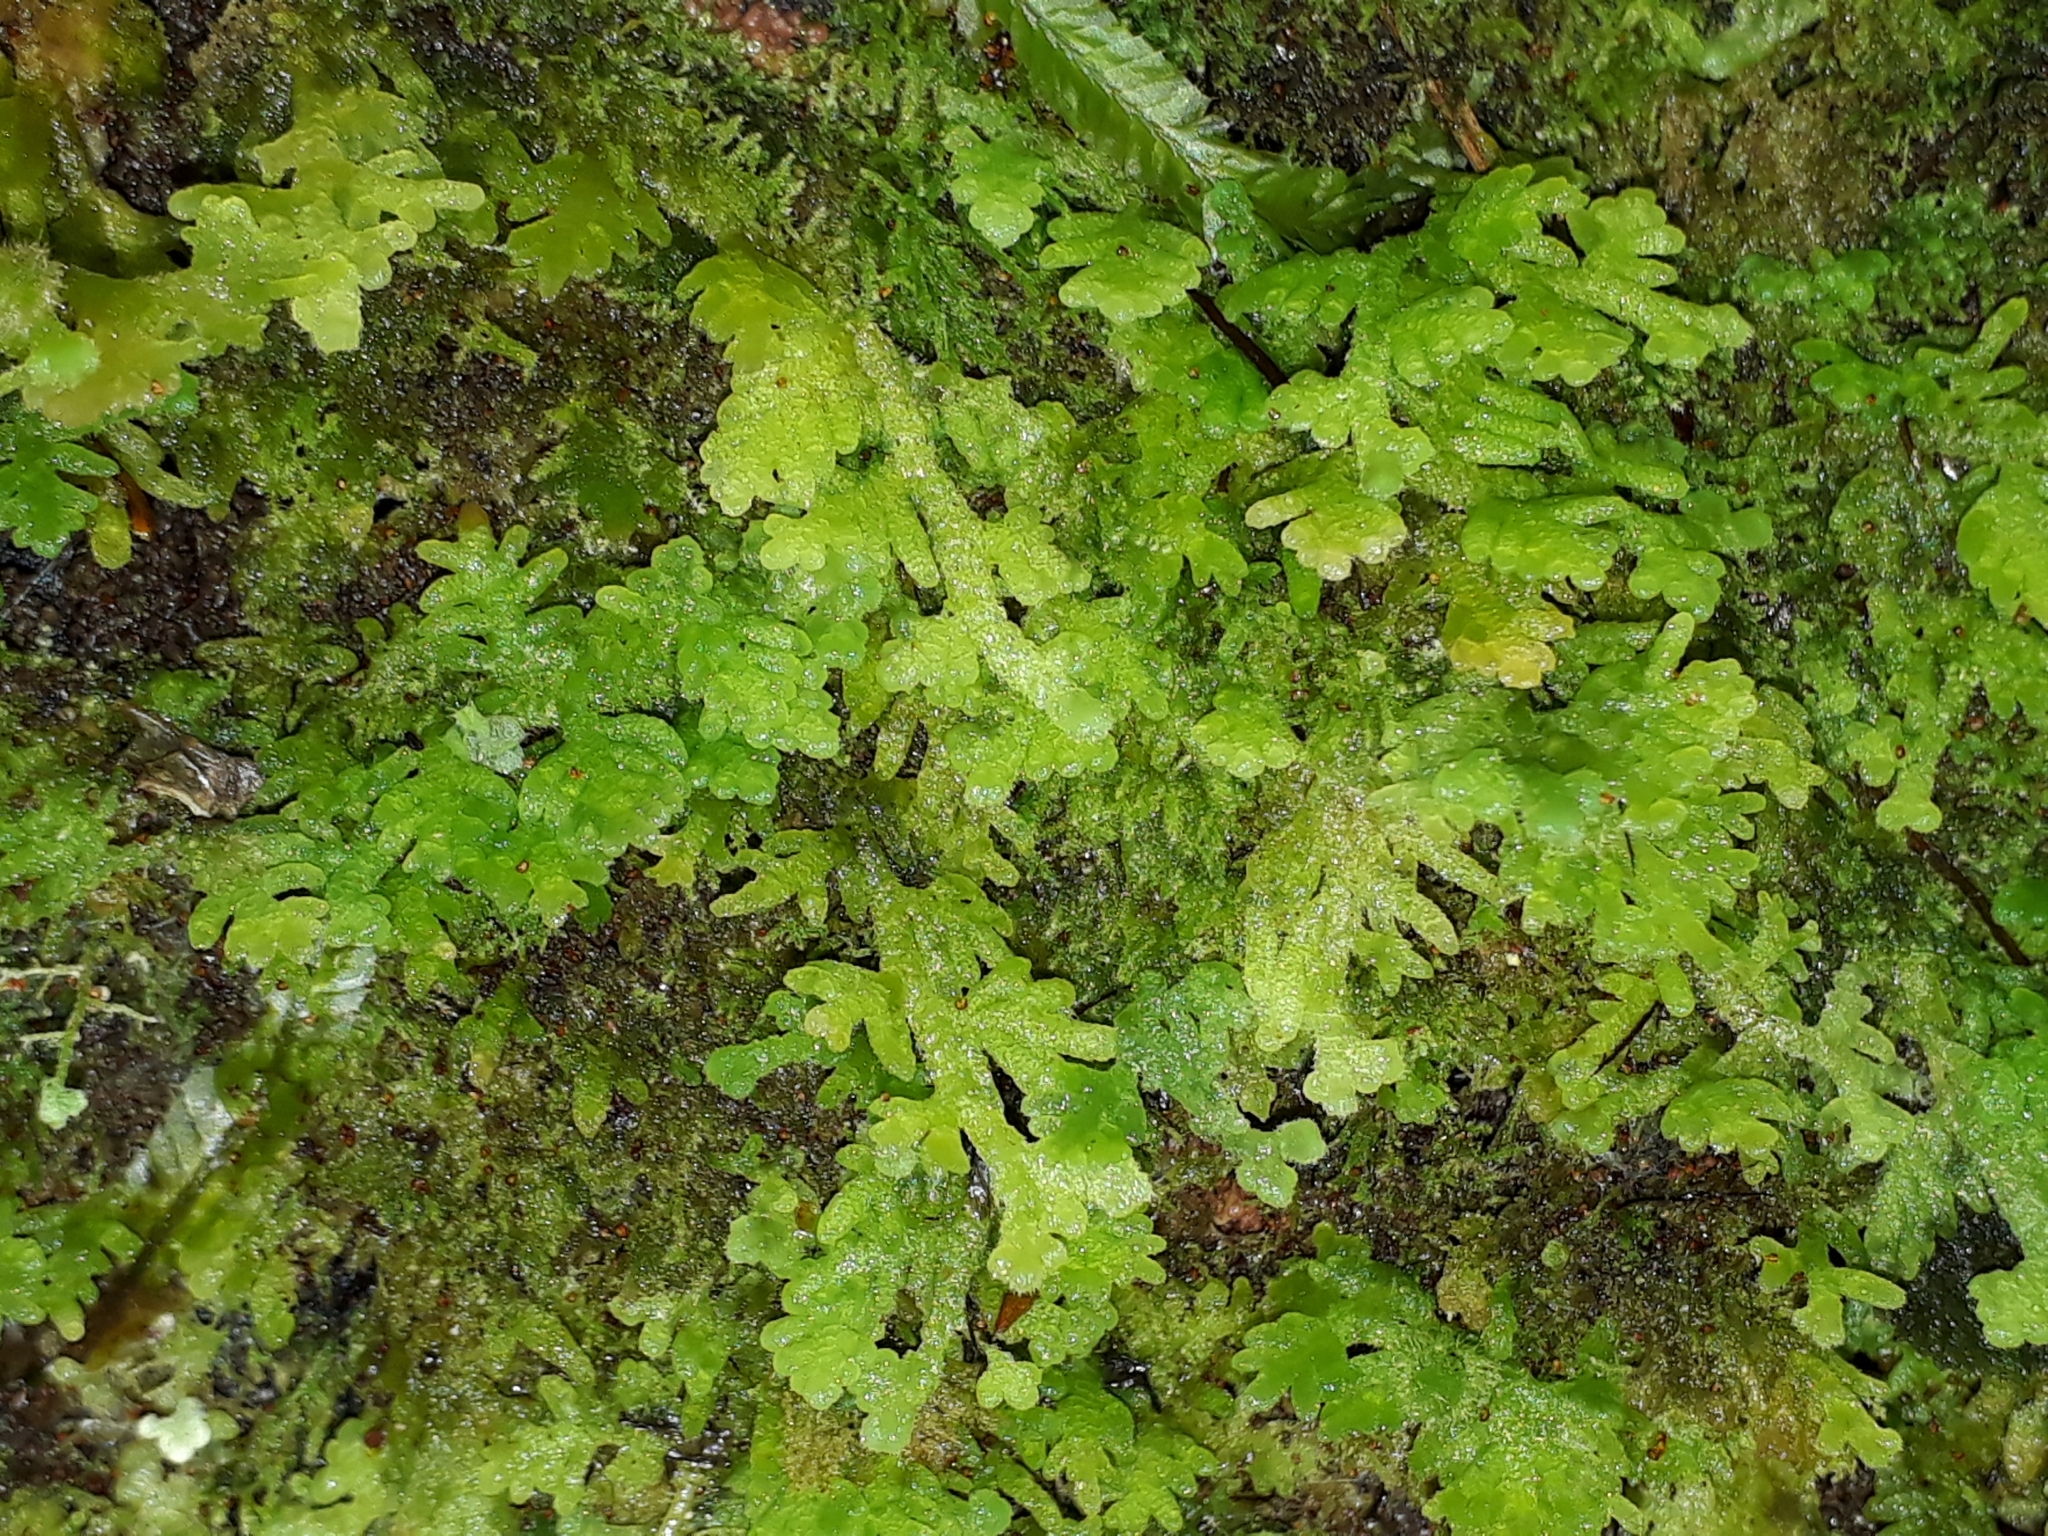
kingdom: Plantae
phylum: Marchantiophyta
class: Jungermanniopsida
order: Jungermanniales
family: Trichocoleaceae
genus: Trichocolea
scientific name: Trichocolea mollissima
